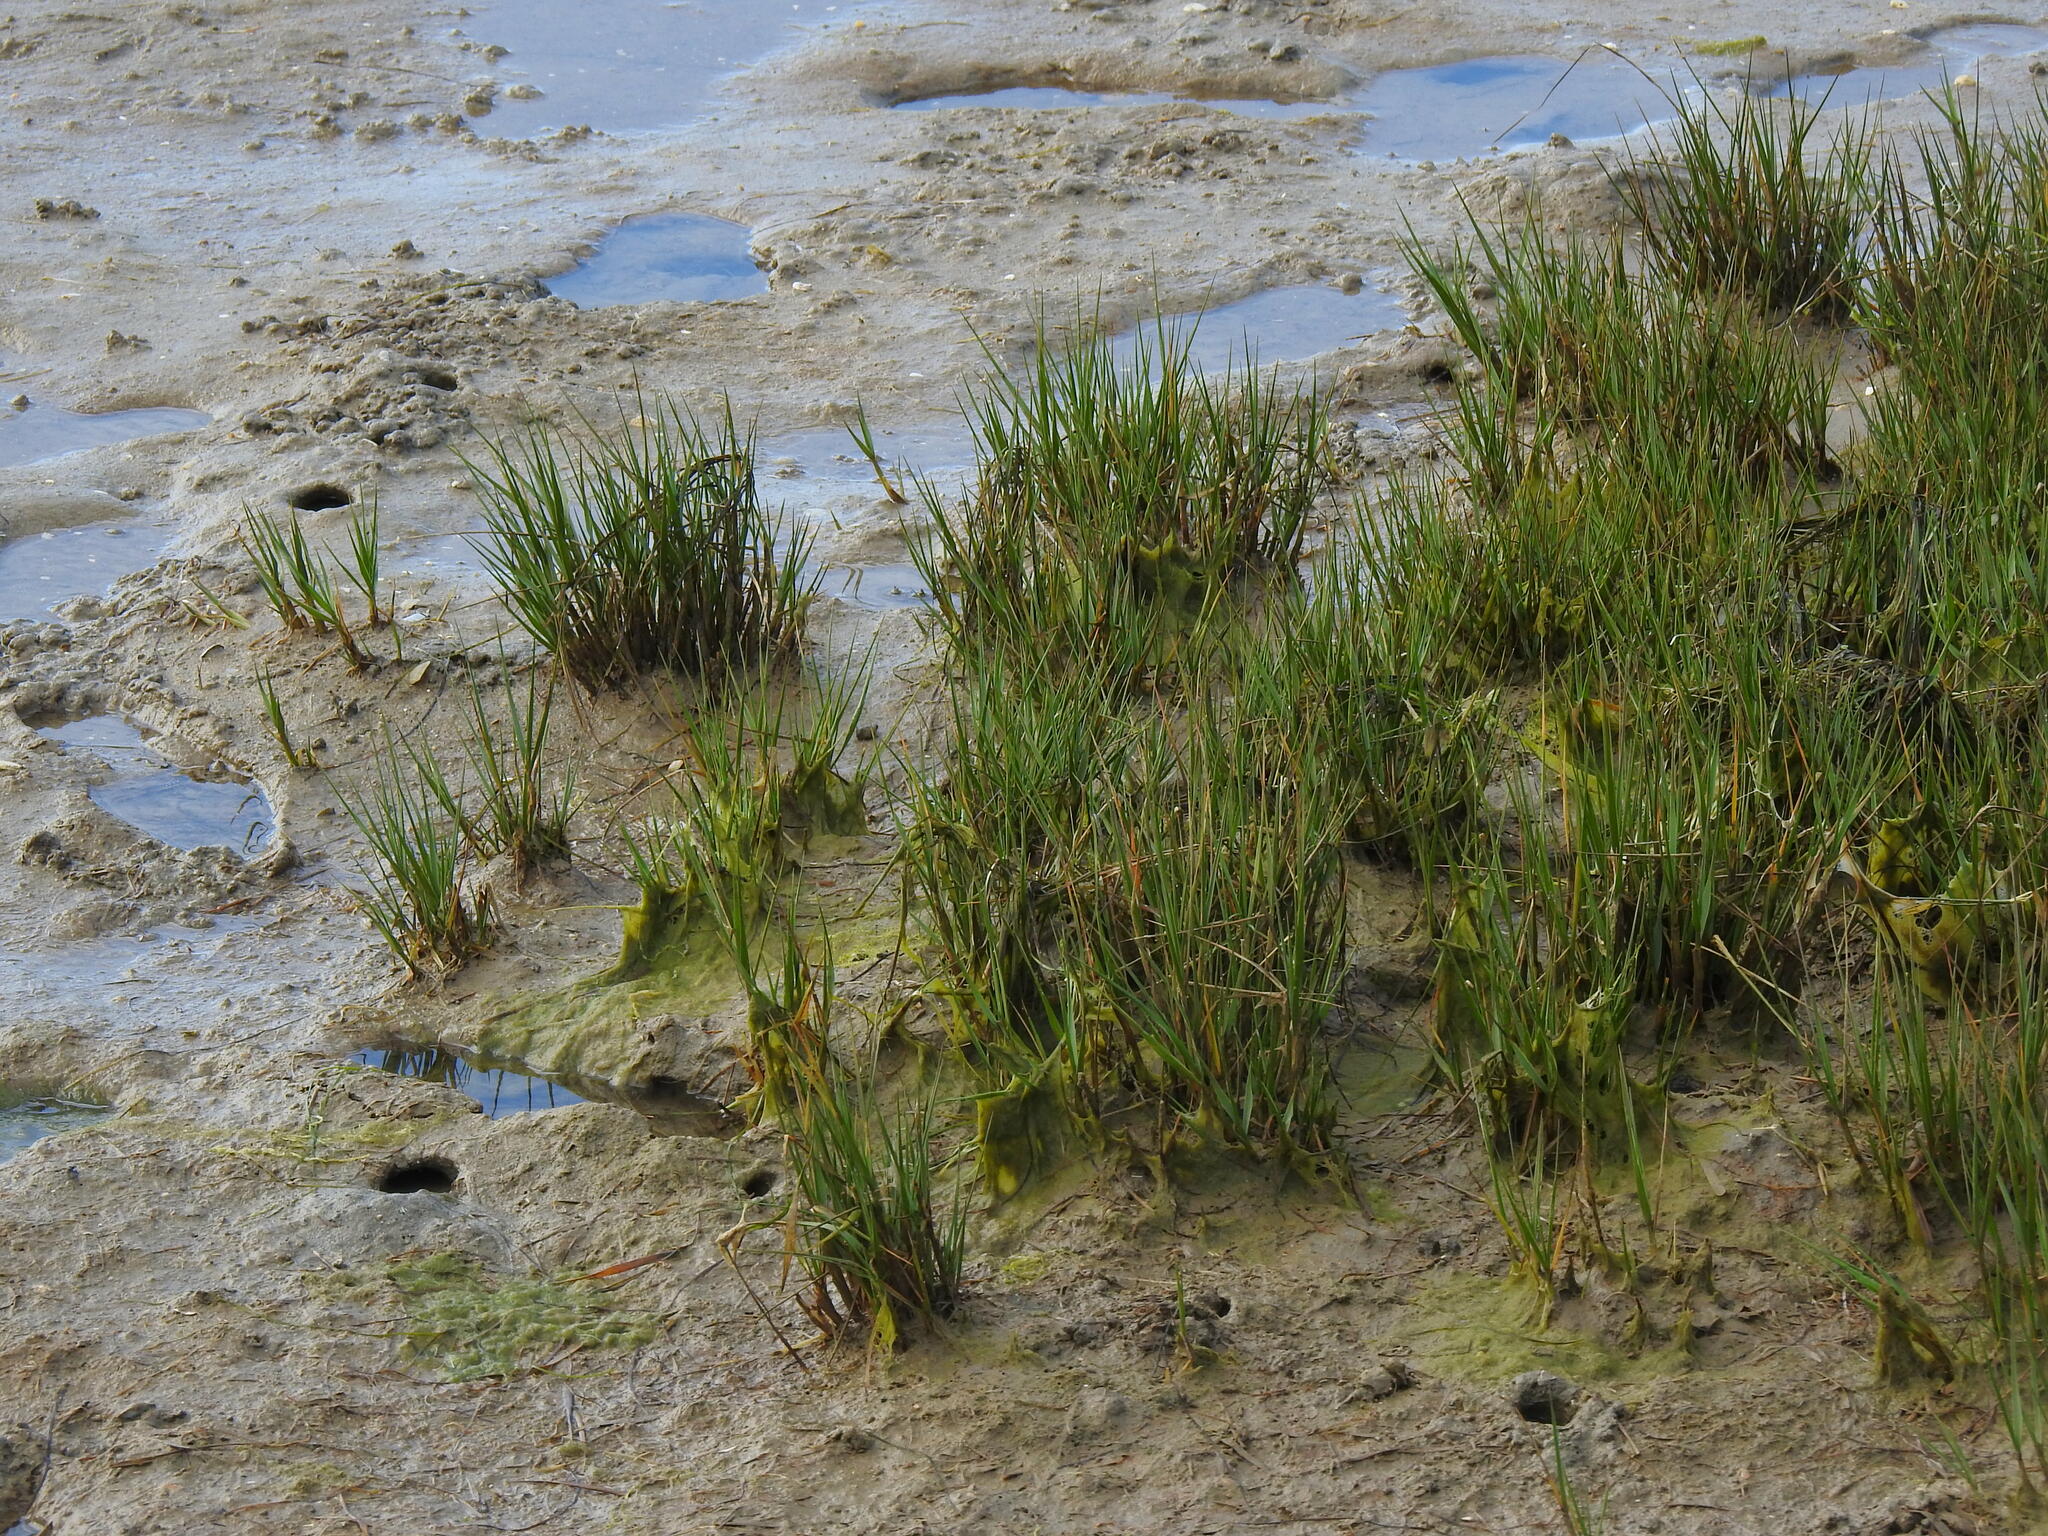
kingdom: Plantae
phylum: Tracheophyta
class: Liliopsida
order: Poales
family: Poaceae
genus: Sporobolus
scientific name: Sporobolus maritimus
